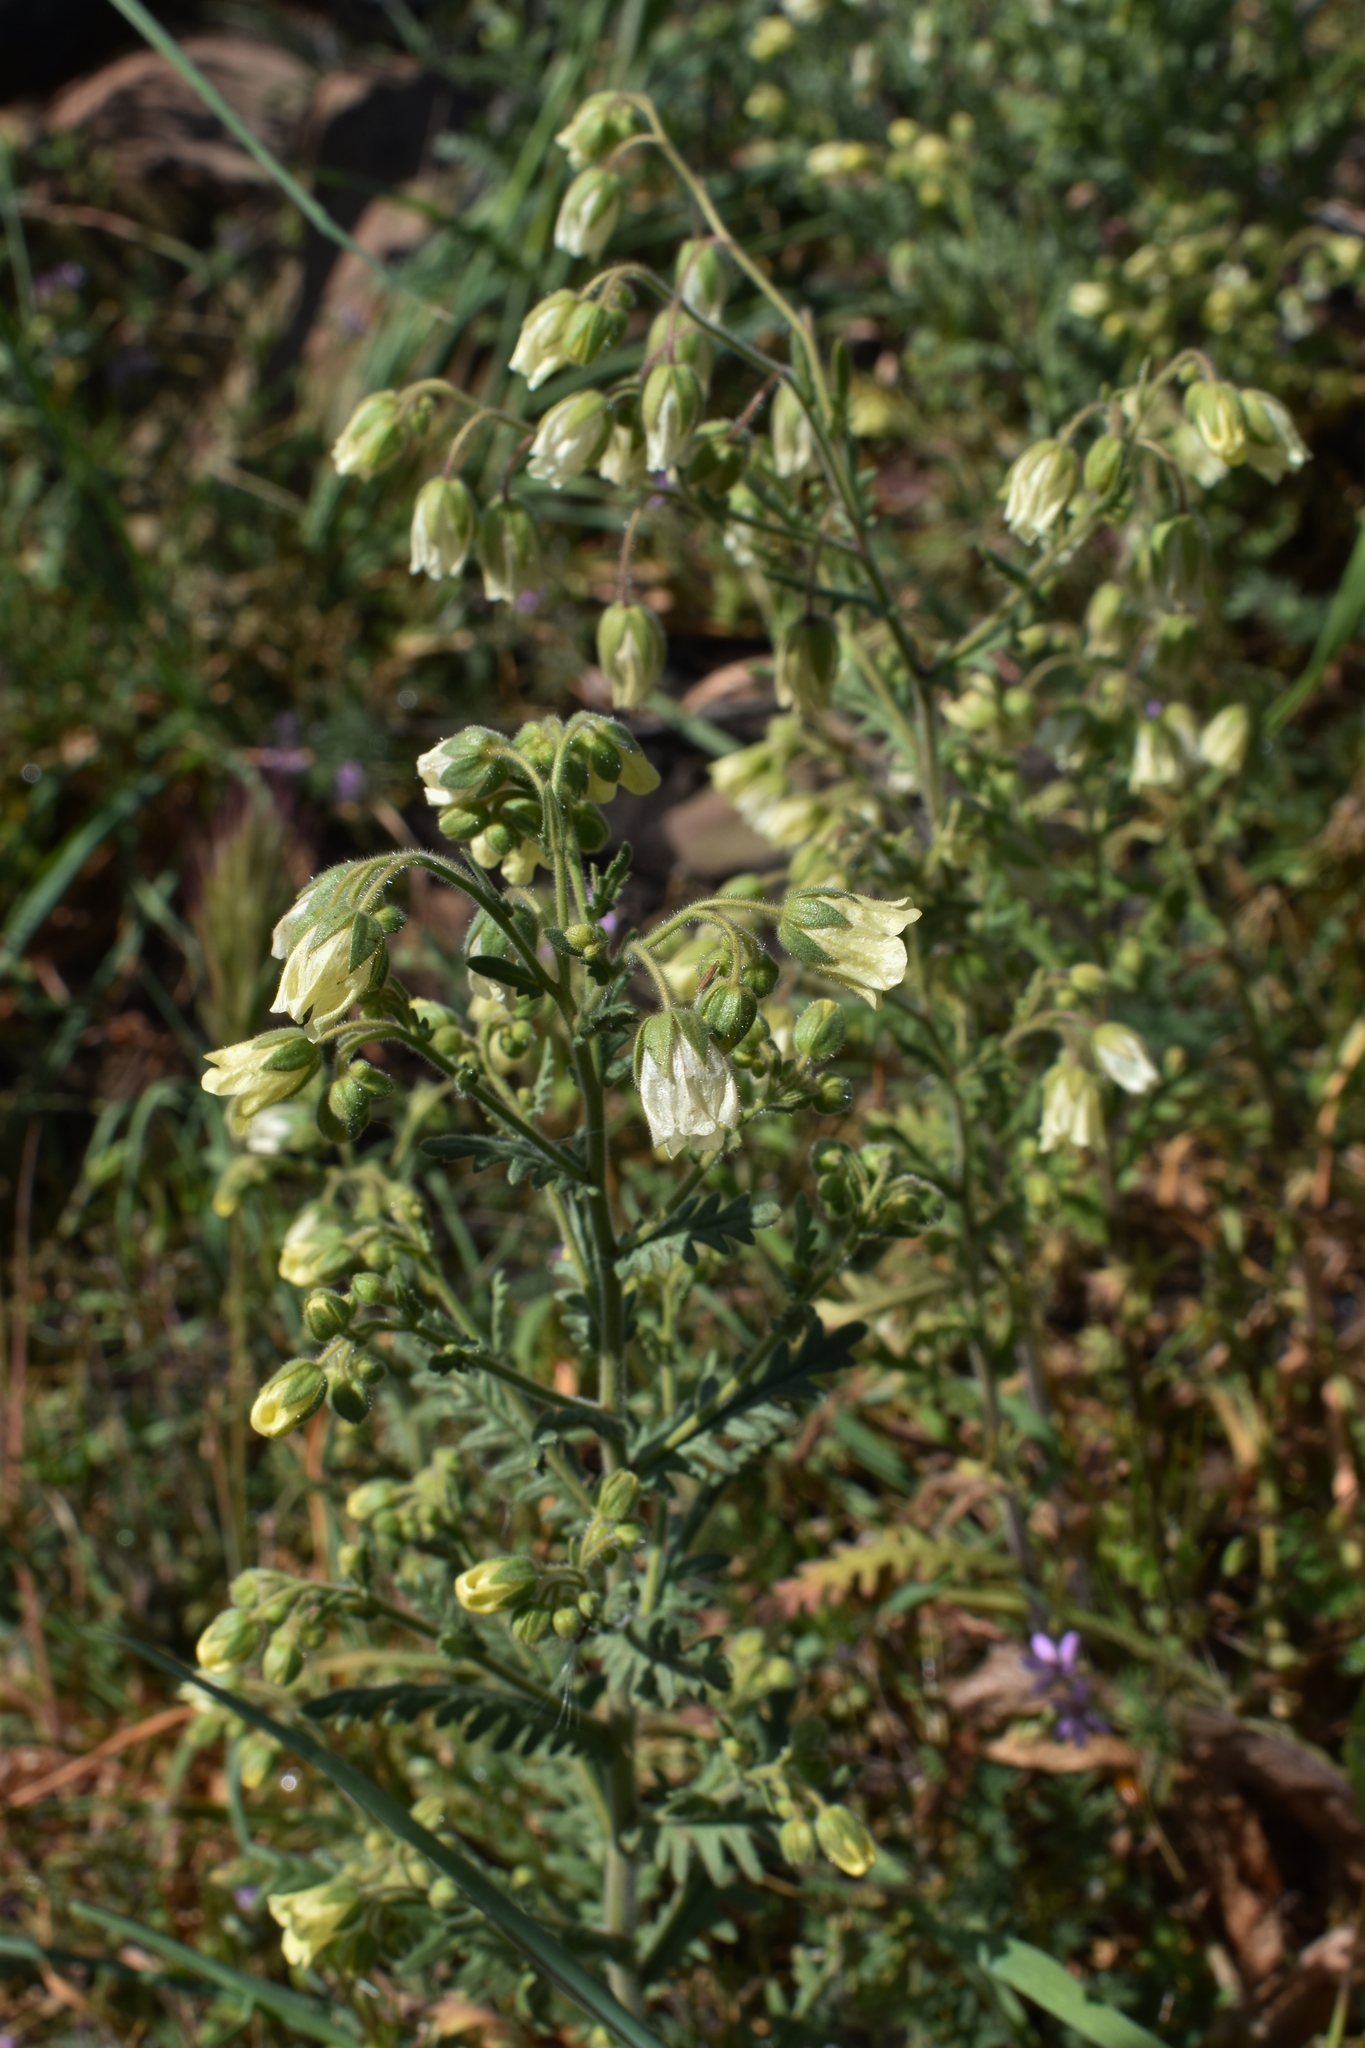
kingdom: Plantae
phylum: Tracheophyta
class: Magnoliopsida
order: Boraginales
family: Hydrophyllaceae
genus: Emmenanthe
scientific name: Emmenanthe penduliflora
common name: Whispering-bells
